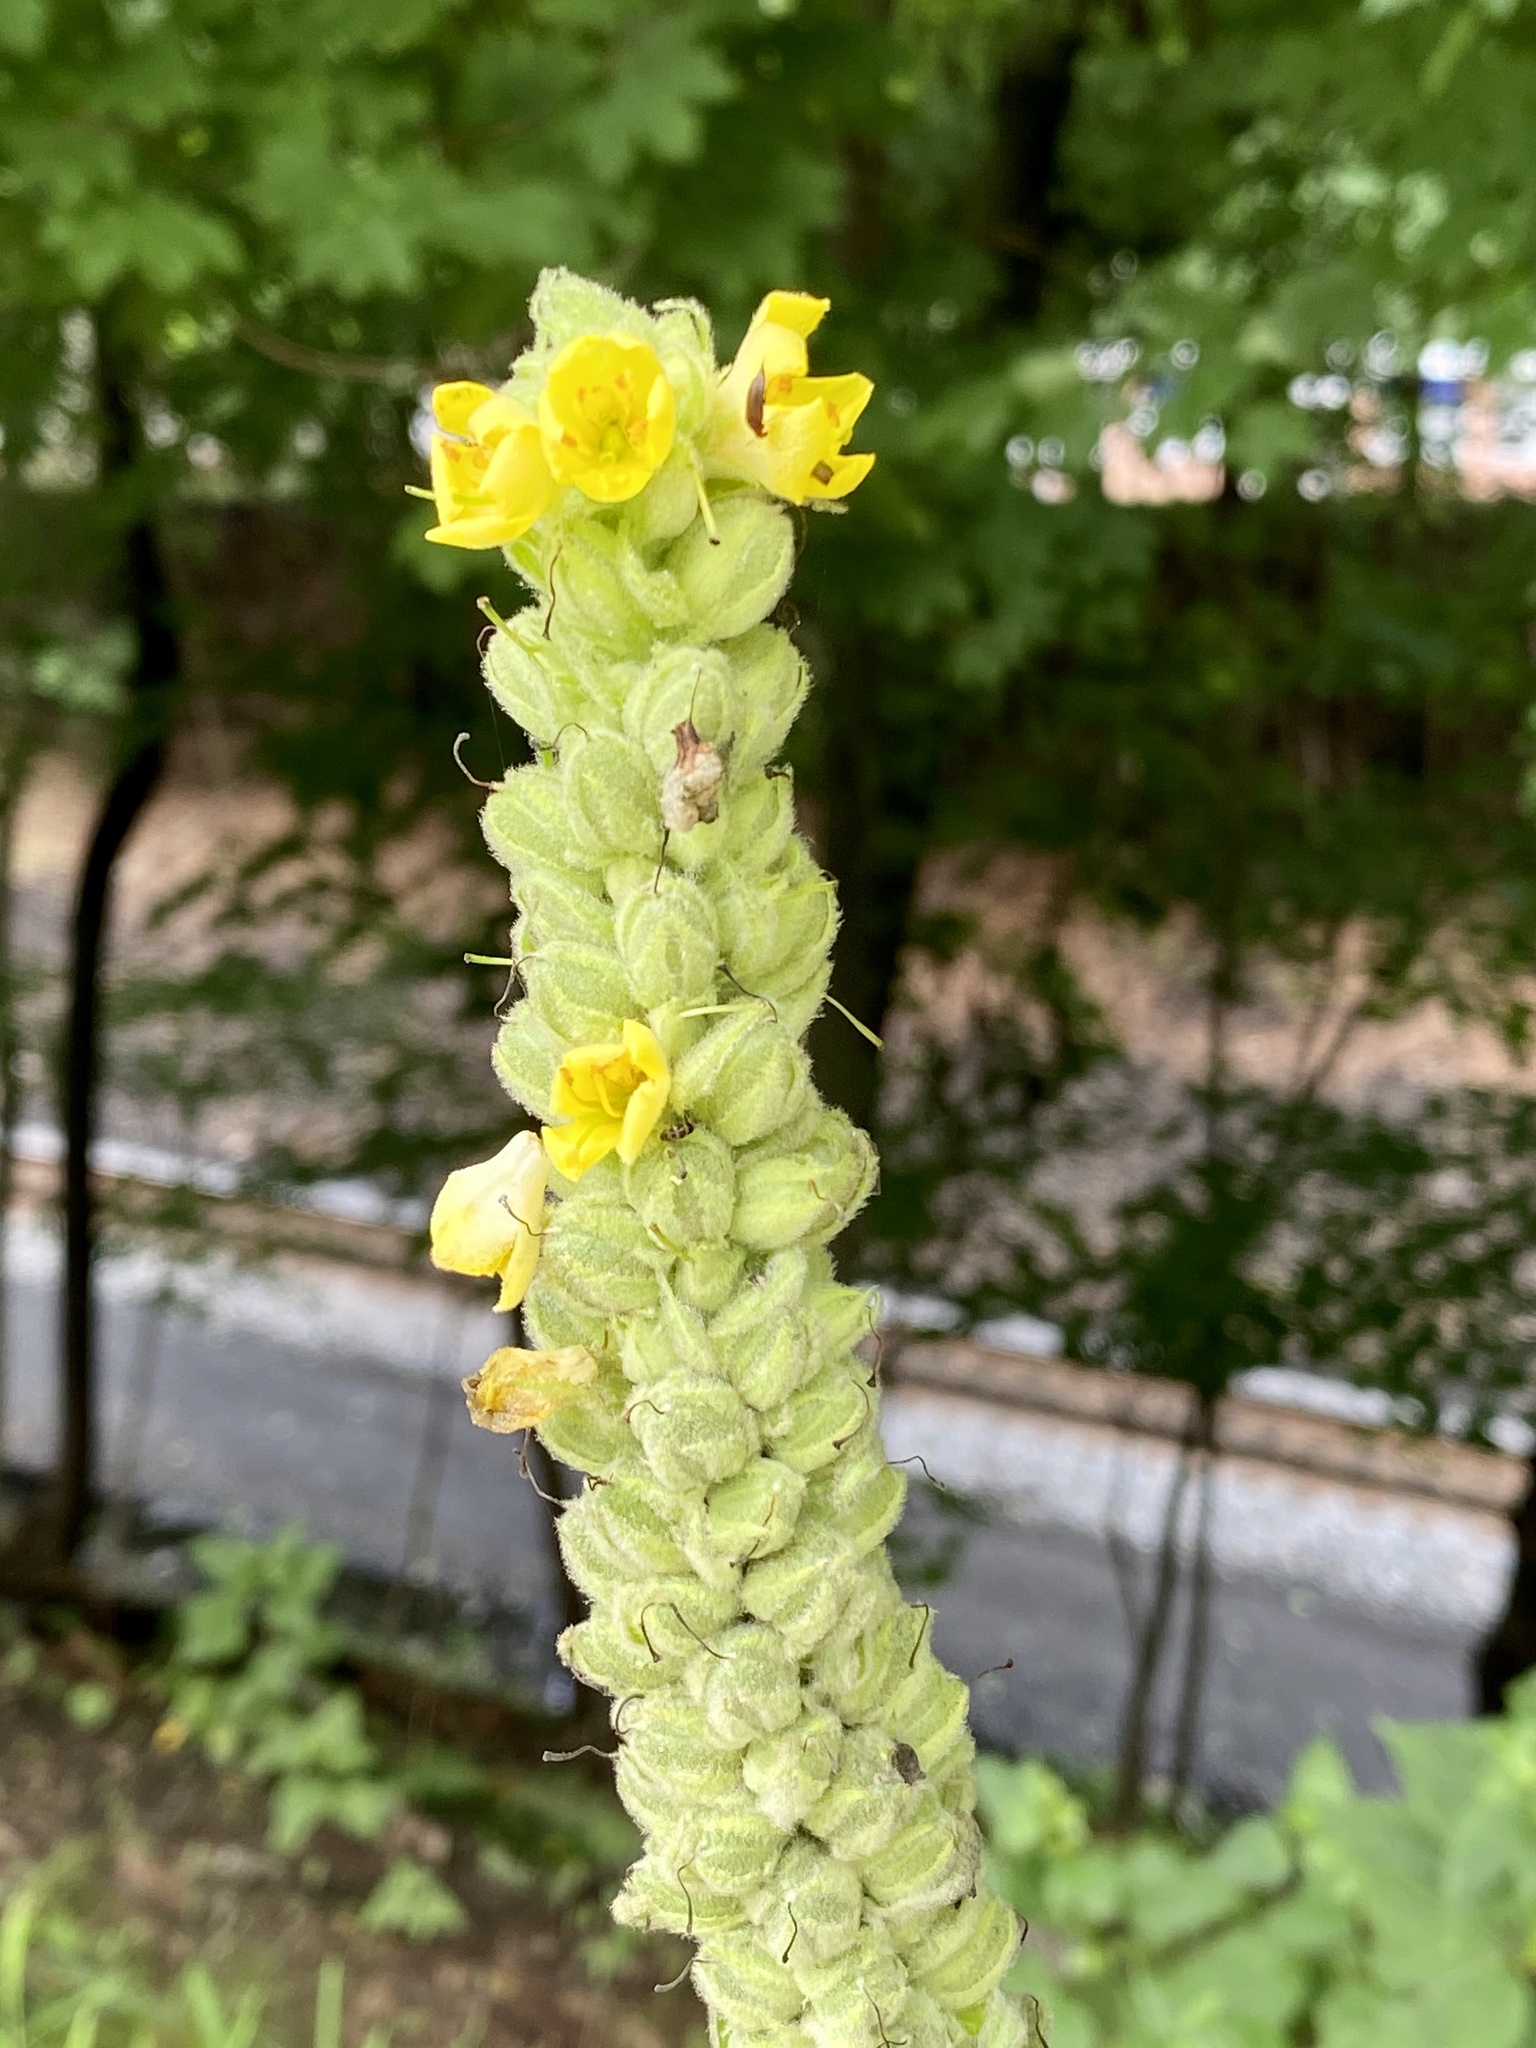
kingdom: Plantae
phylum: Tracheophyta
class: Magnoliopsida
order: Lamiales
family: Scrophulariaceae
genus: Verbascum
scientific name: Verbascum thapsus
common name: Common mullein
